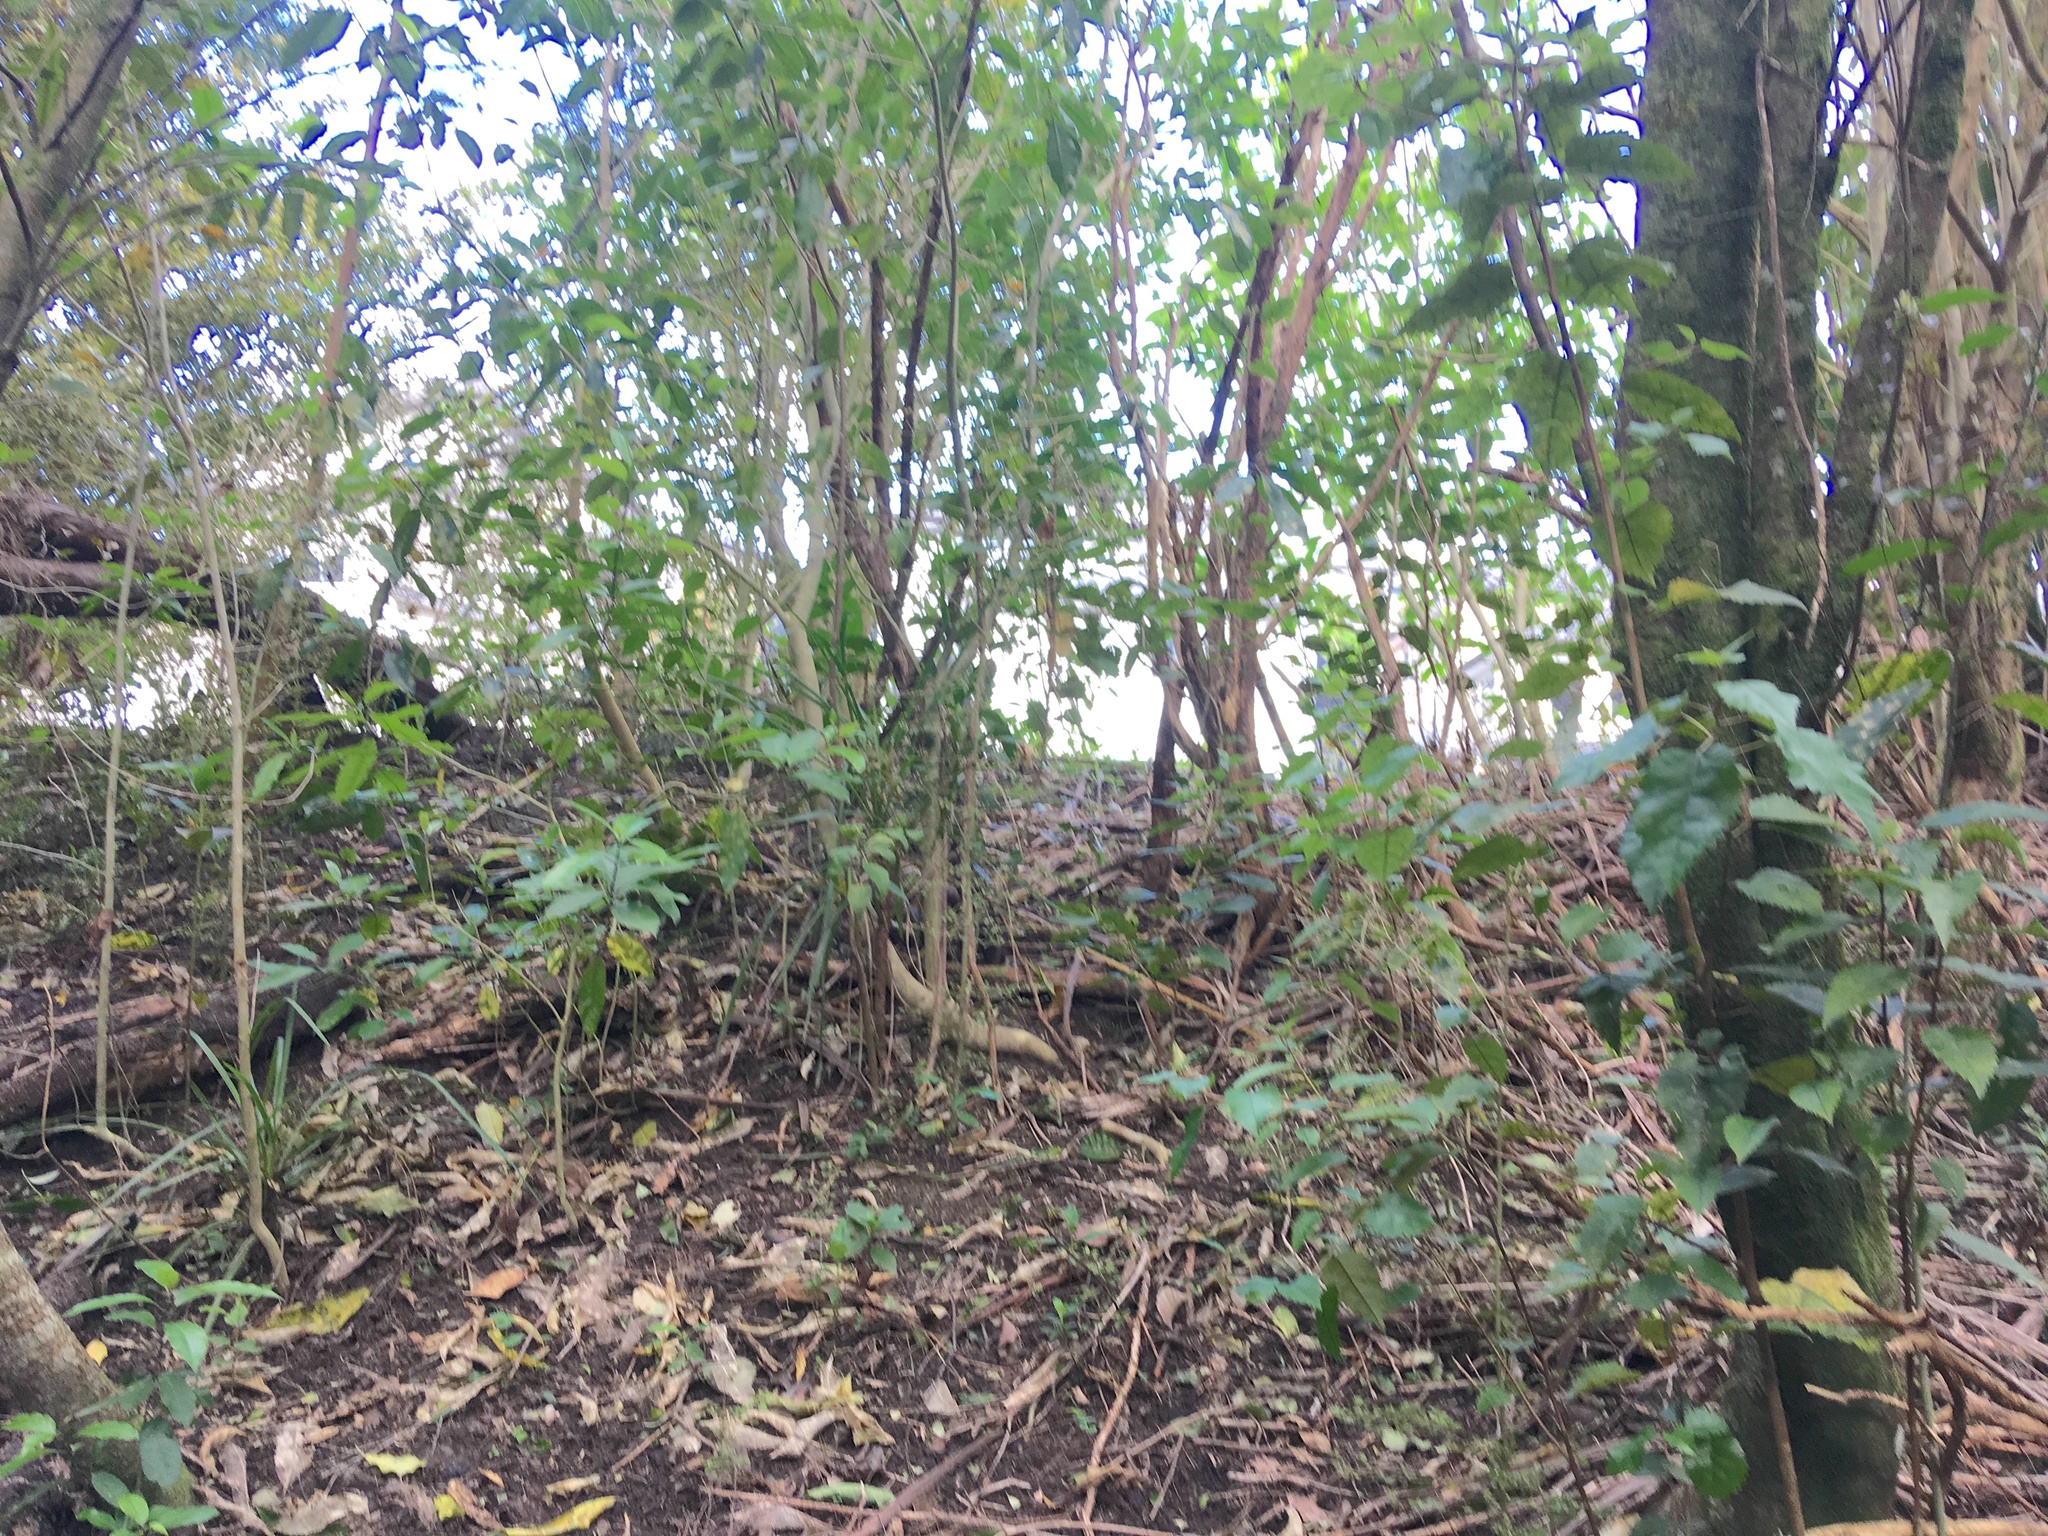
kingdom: Plantae
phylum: Tracheophyta
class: Magnoliopsida
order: Malpighiales
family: Violaceae
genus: Melicytus
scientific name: Melicytus ramiflorus
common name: Mahoe
